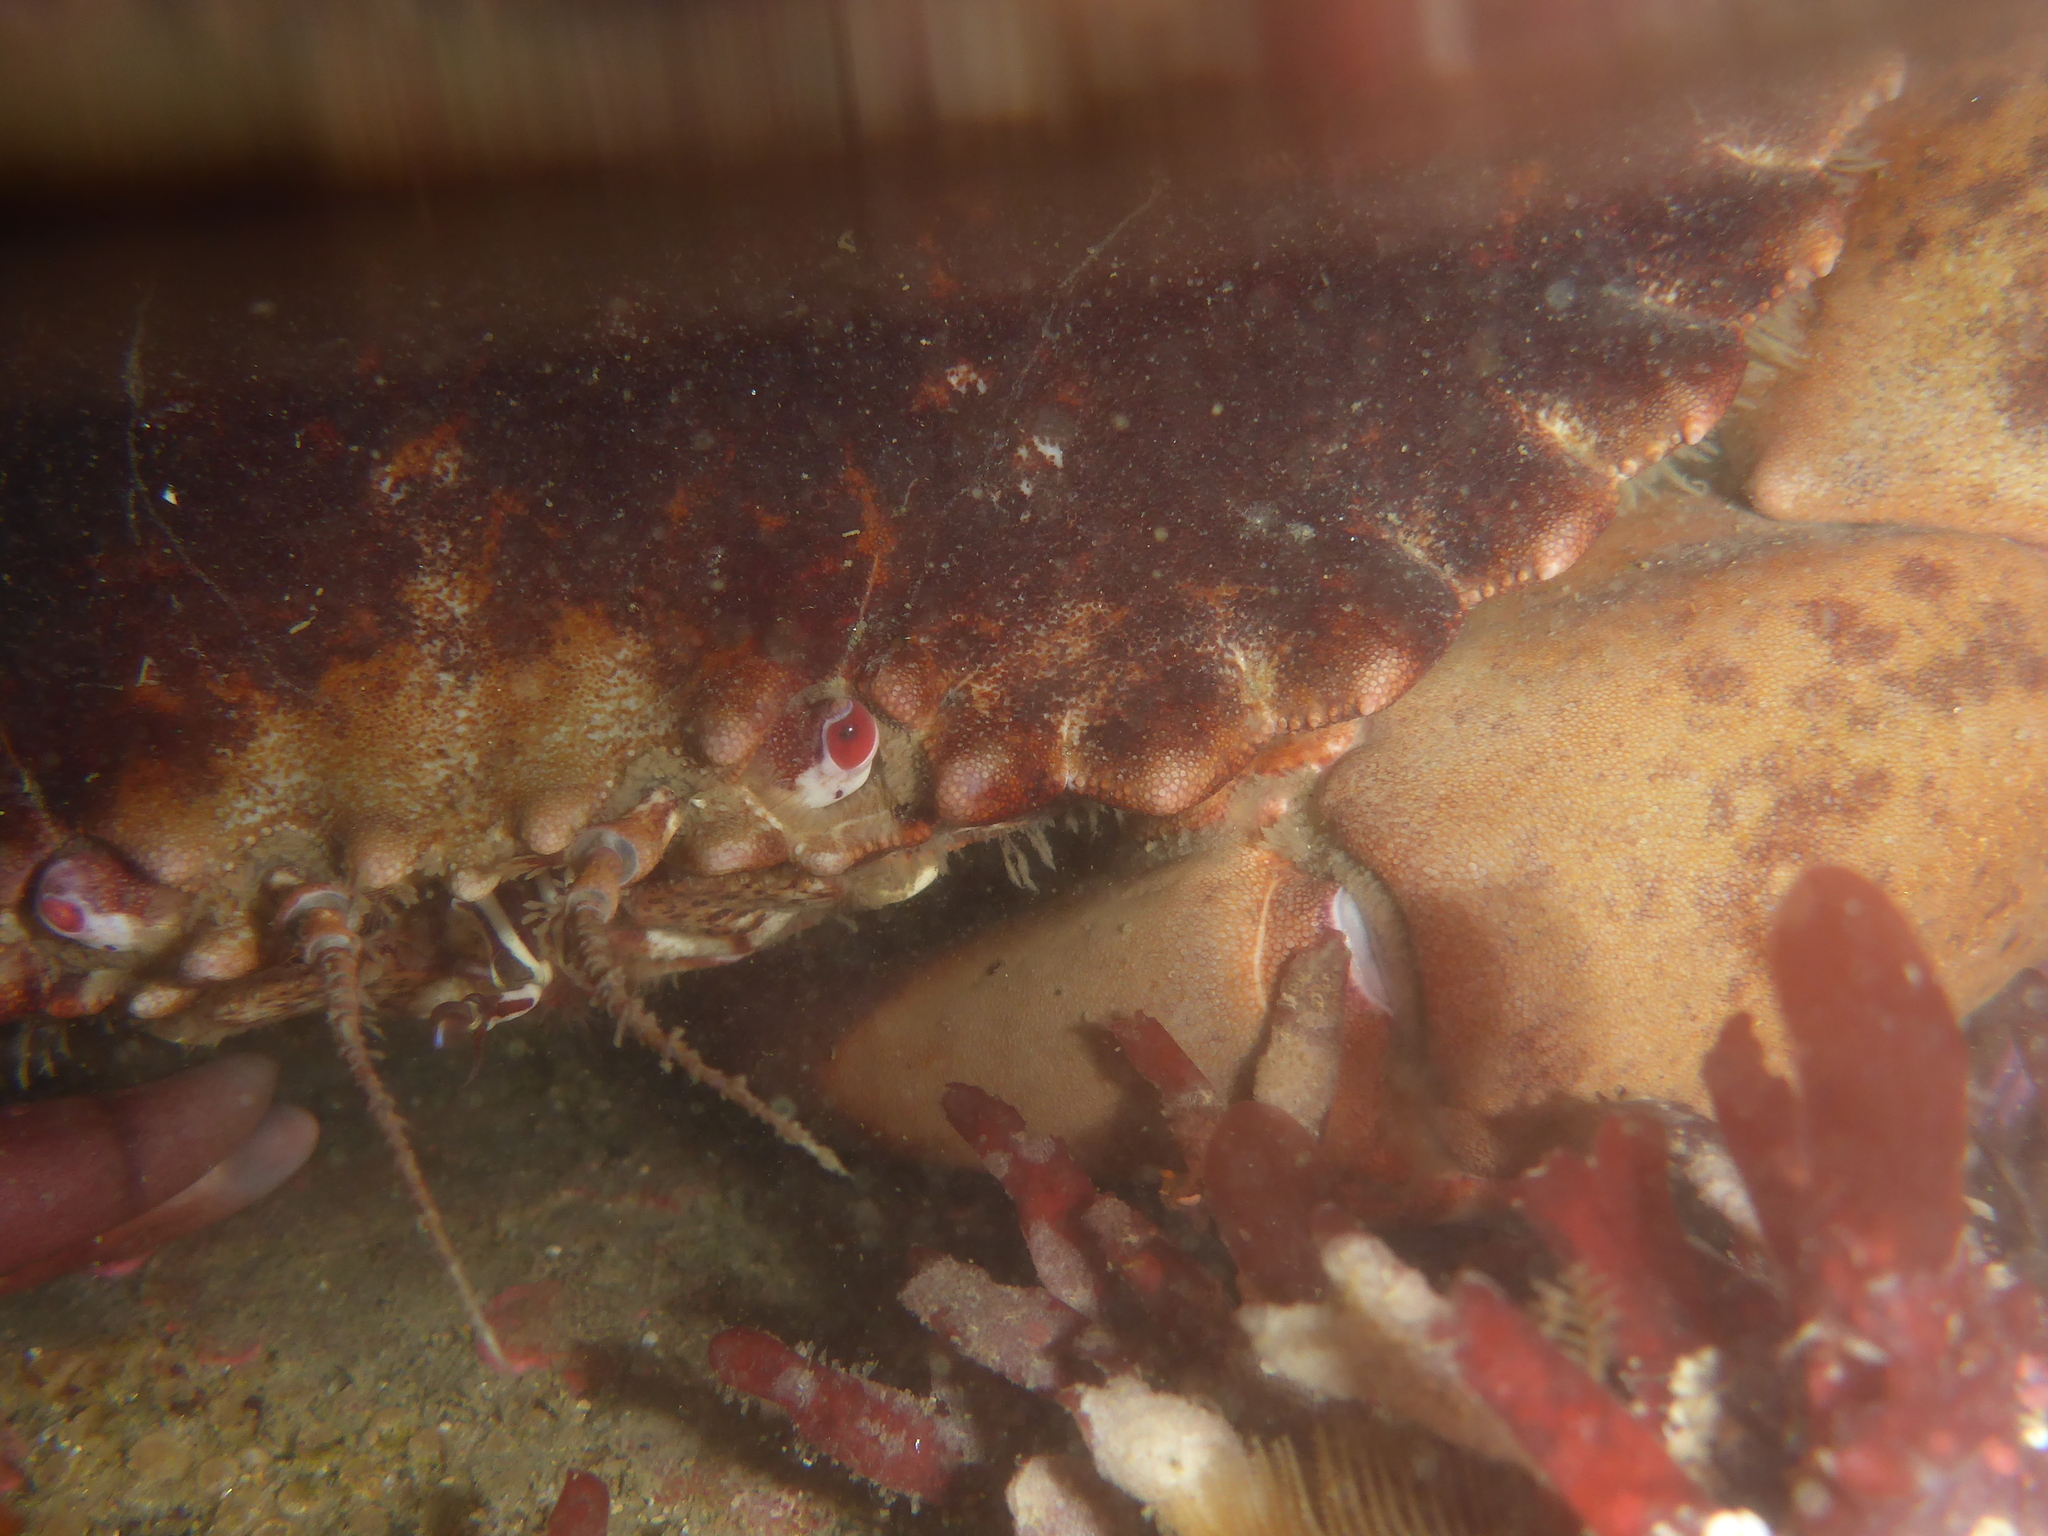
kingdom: Animalia
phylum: Arthropoda
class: Malacostraca
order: Decapoda
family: Cancridae
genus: Romaleon
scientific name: Romaleon antennarium
